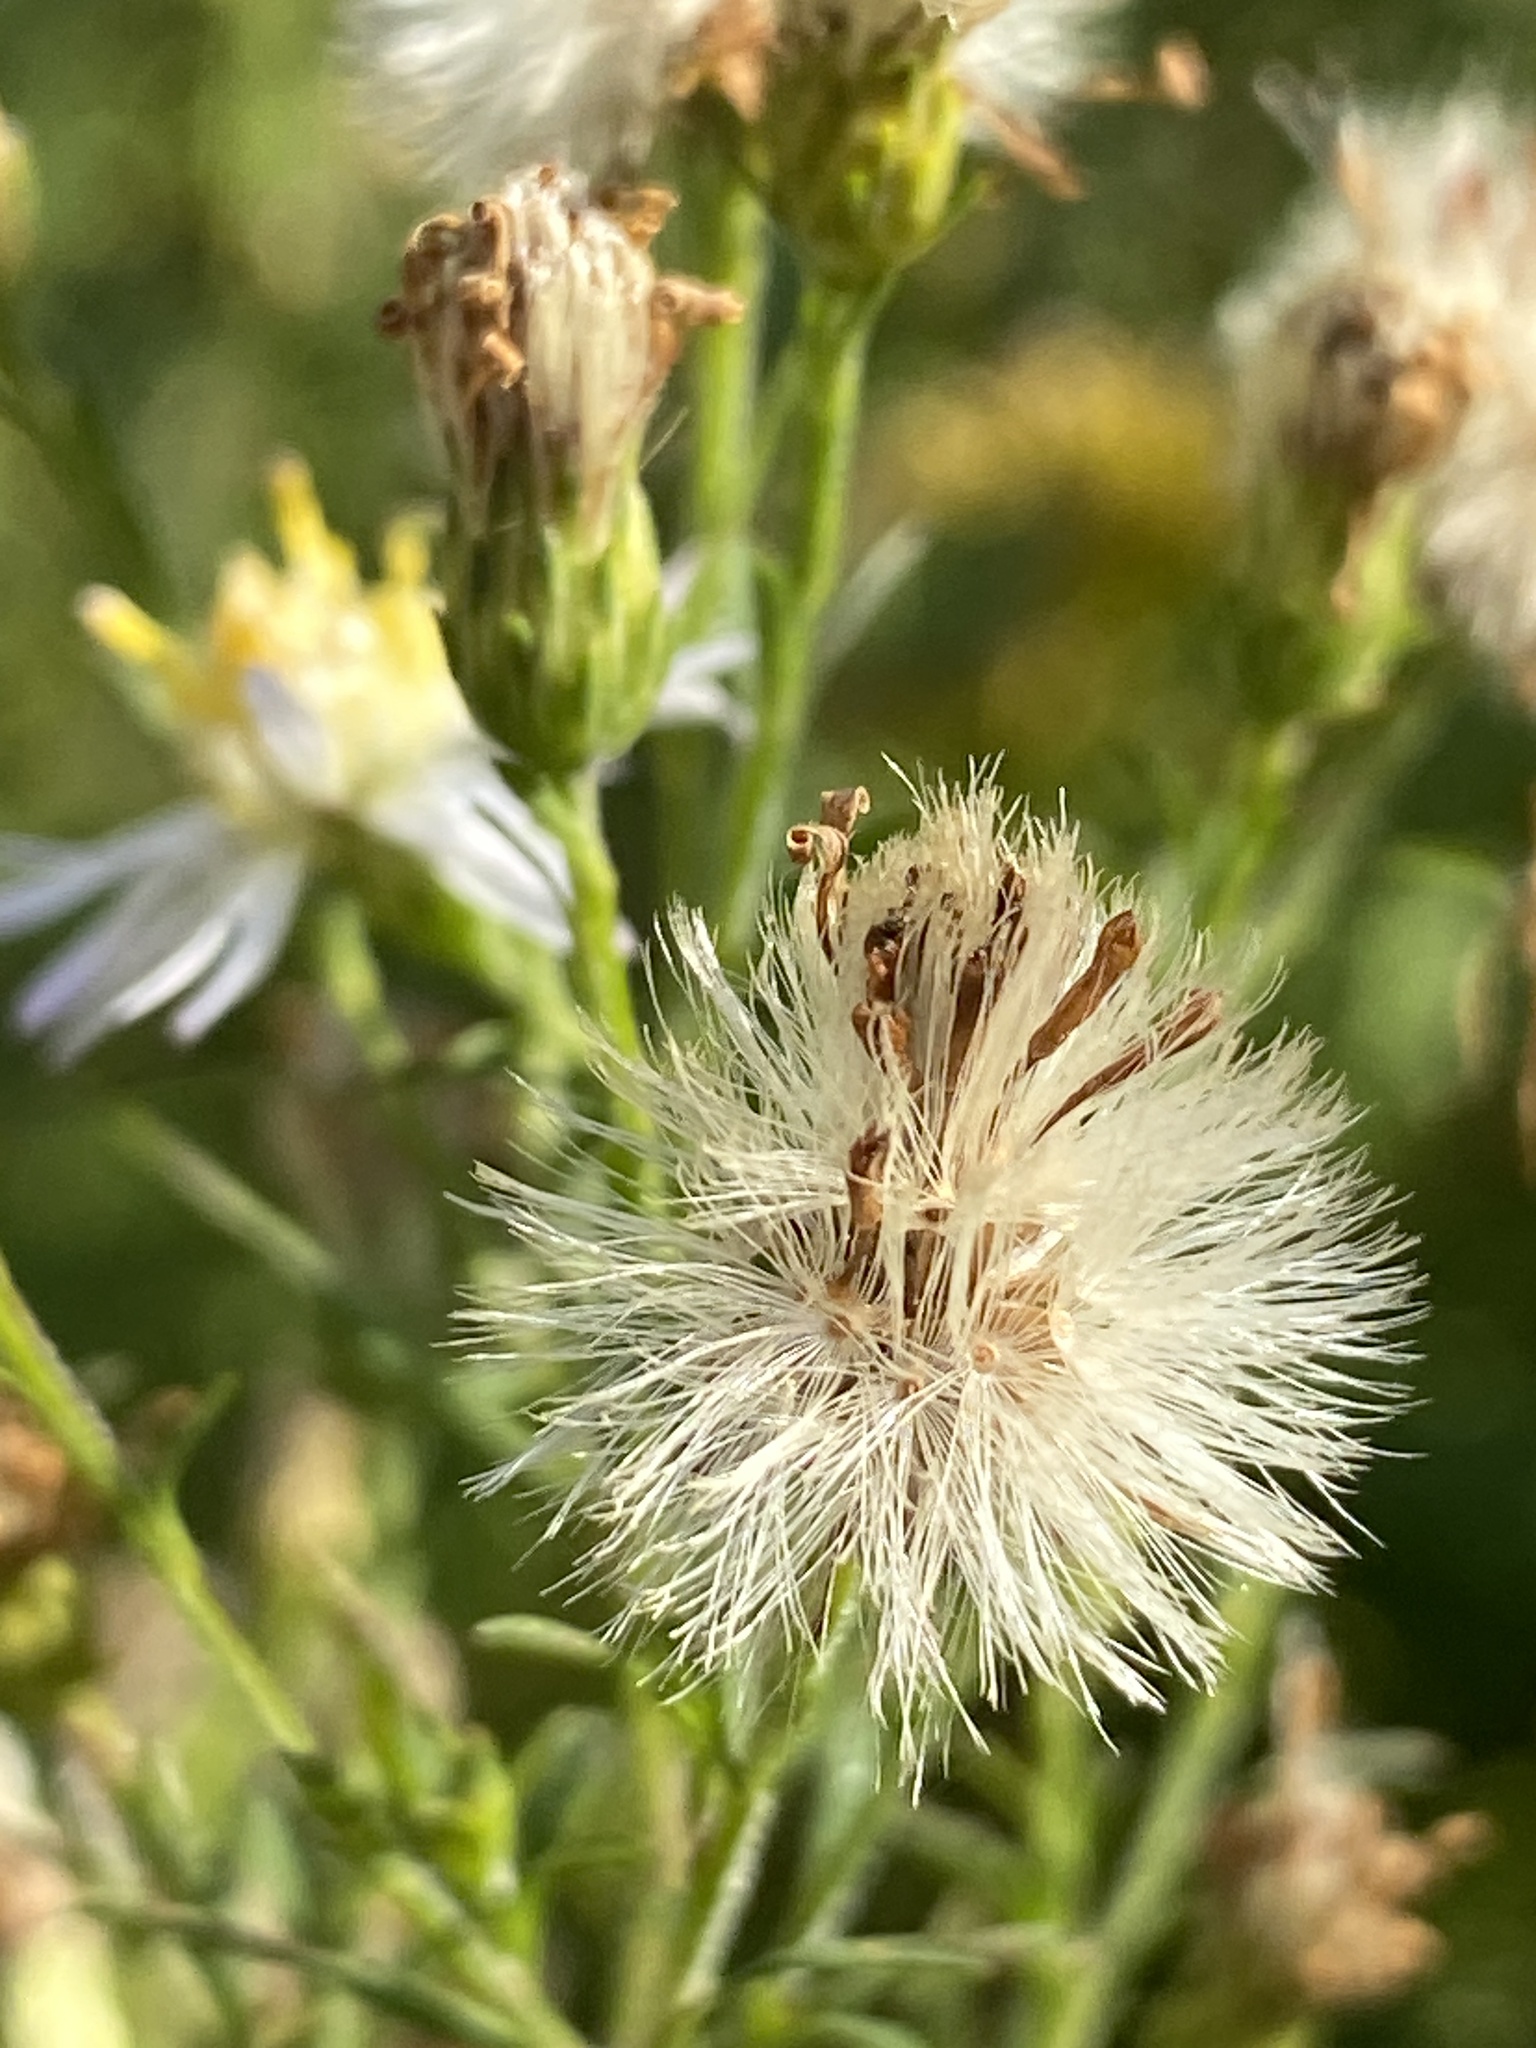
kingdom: Plantae
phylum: Tracheophyta
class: Magnoliopsida
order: Asterales
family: Asteraceae
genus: Symphyotrichum
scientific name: Symphyotrichum lanceolatum
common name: Panicled aster
